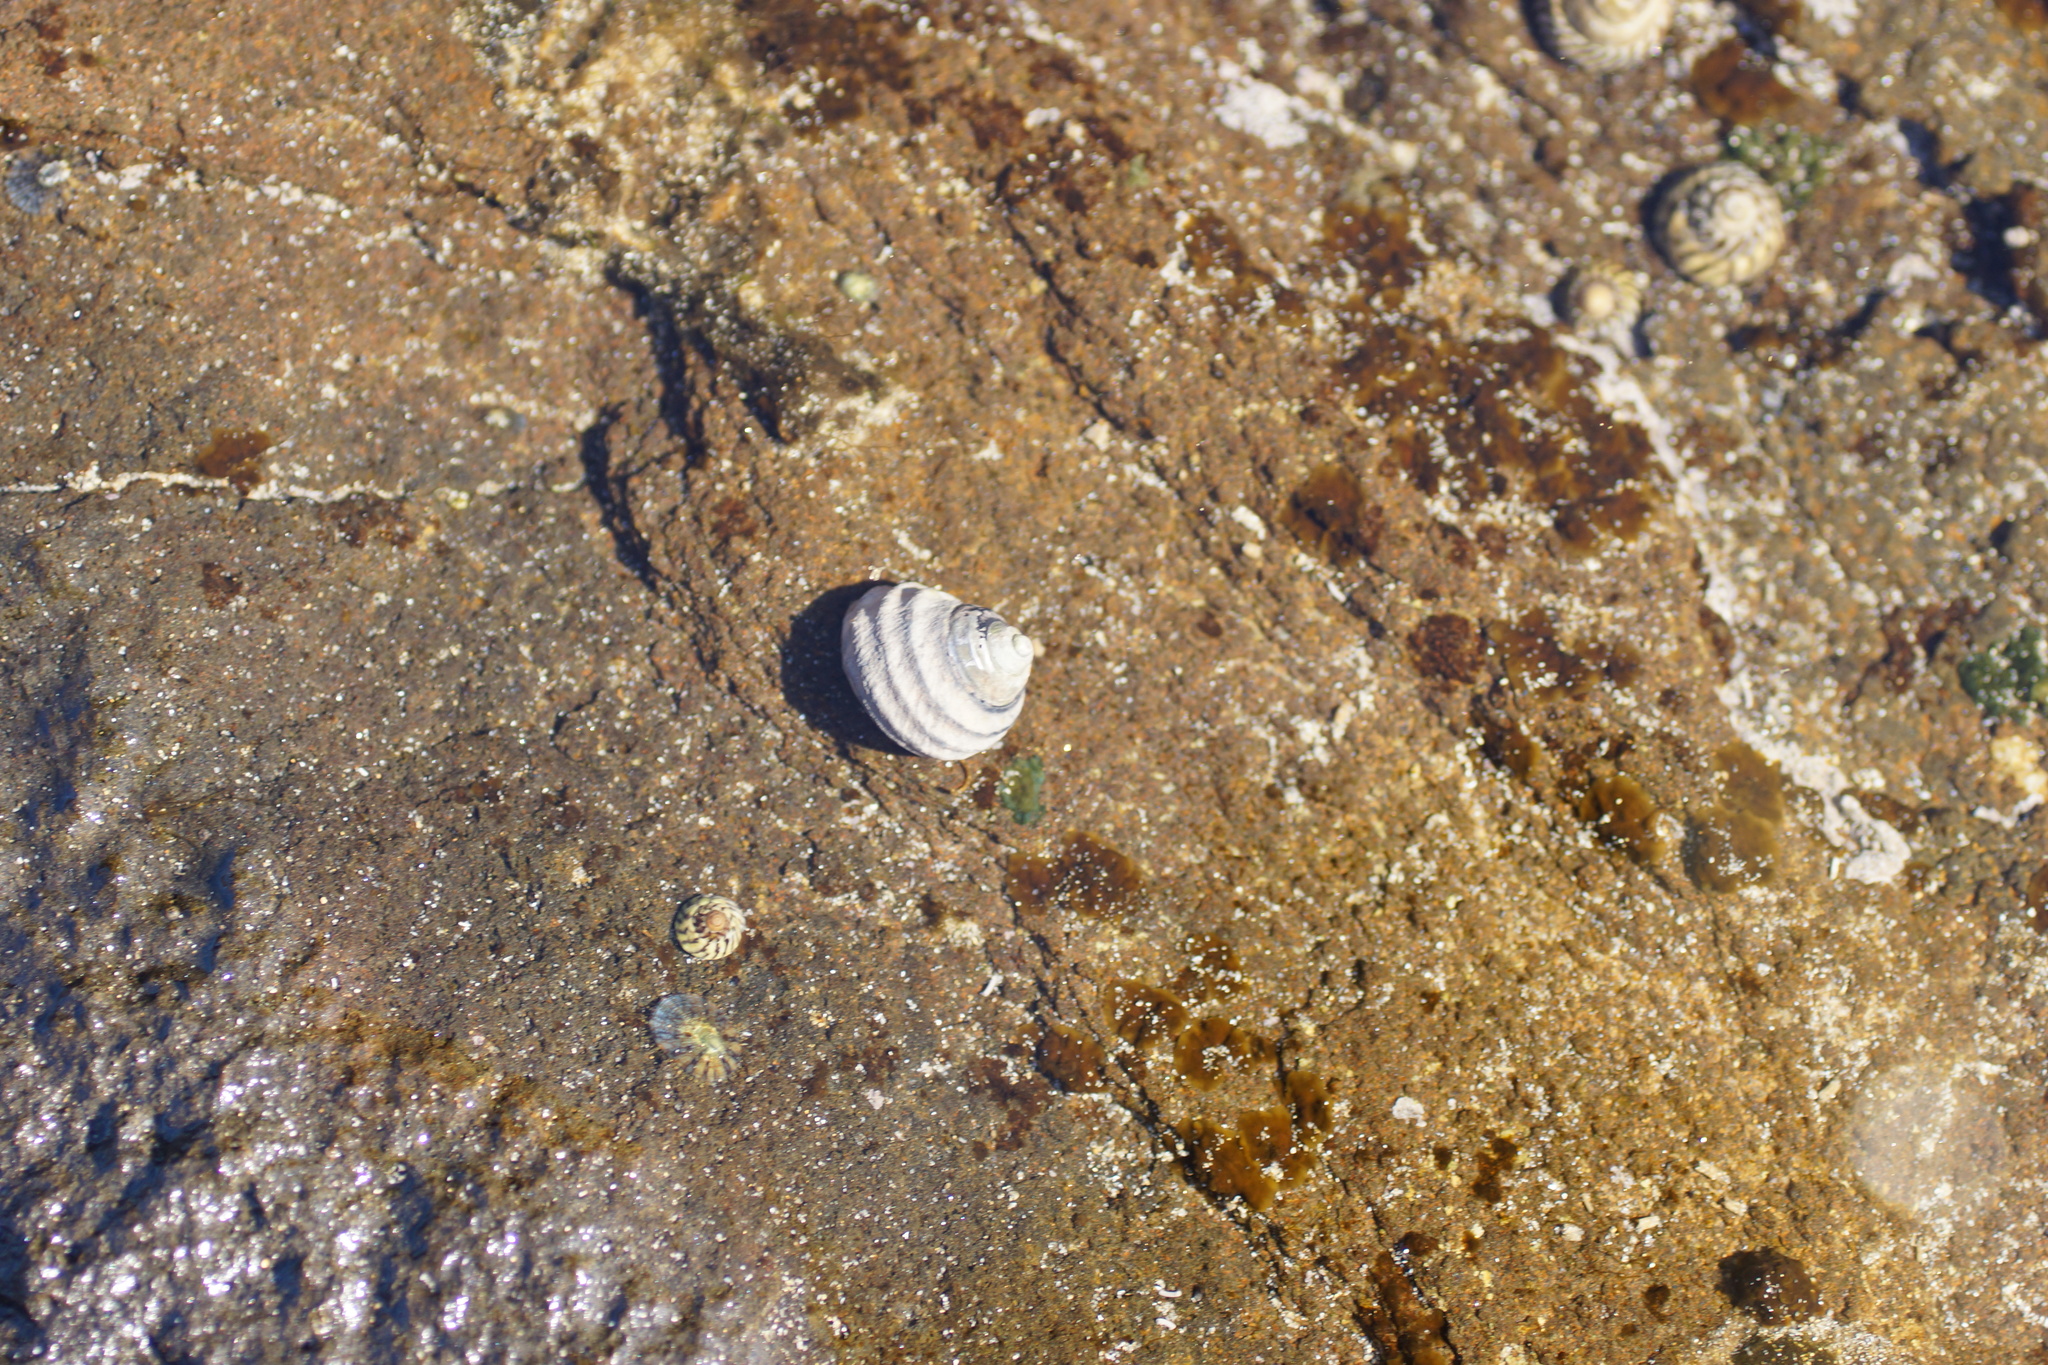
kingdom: Animalia
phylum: Mollusca
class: Gastropoda
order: Trochida
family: Trochidae
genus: Austrocochlea
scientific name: Austrocochlea constricta
